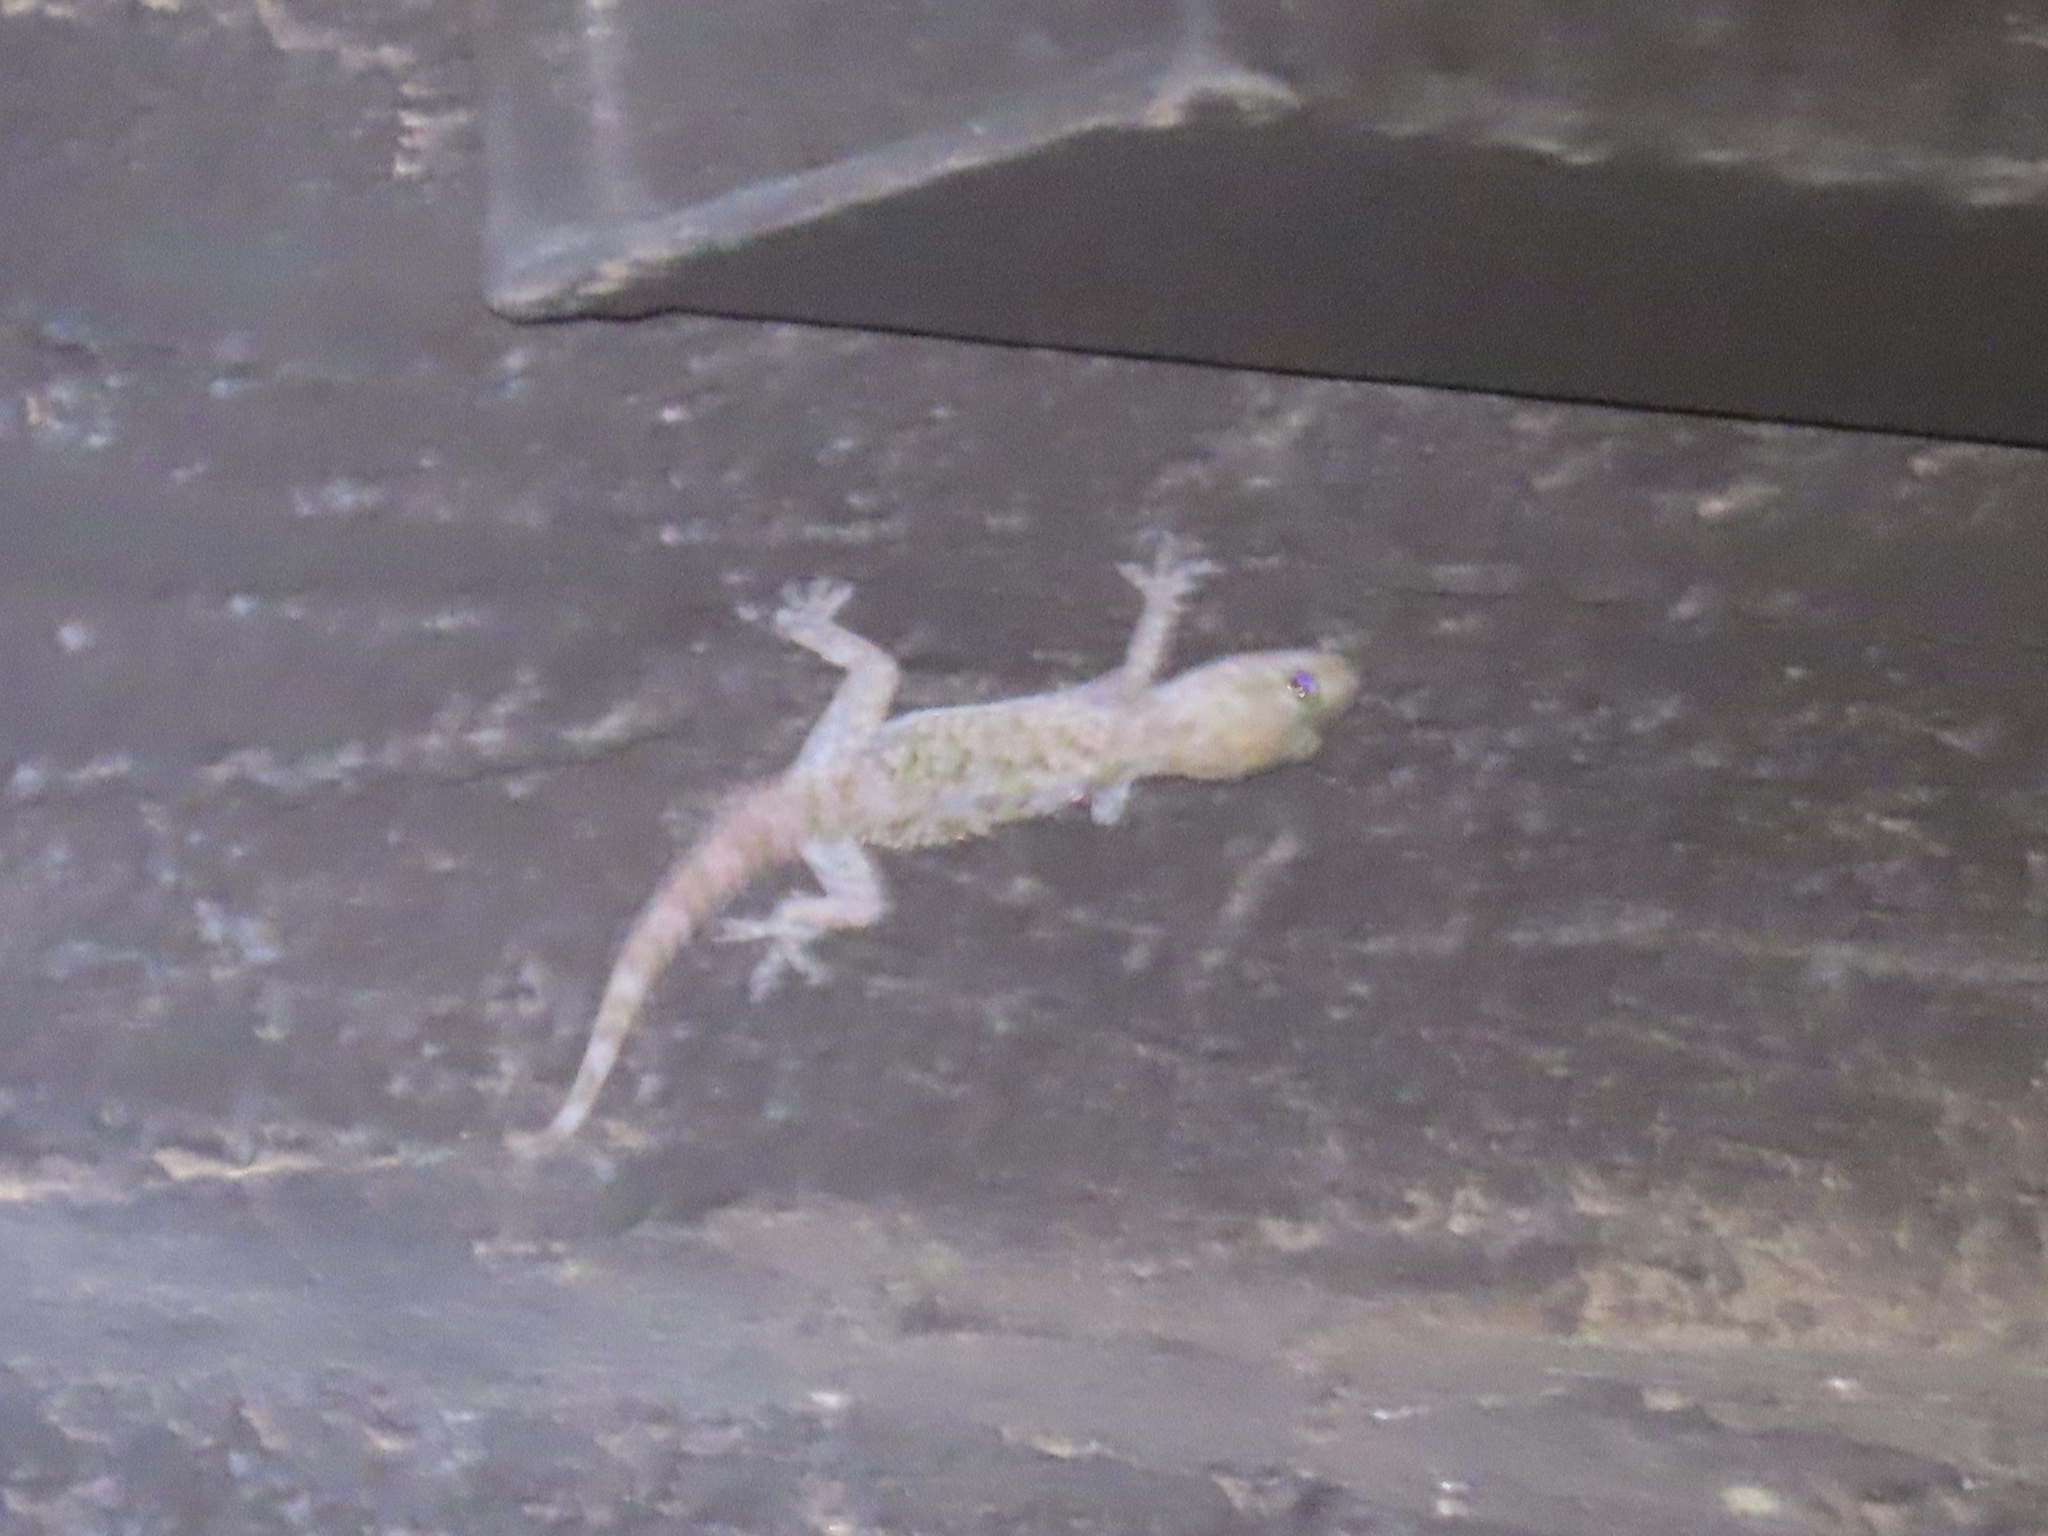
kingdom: Animalia
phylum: Chordata
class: Squamata
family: Gekkonidae
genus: Hemidactylus
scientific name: Hemidactylus turcicus
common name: Turkish gecko
